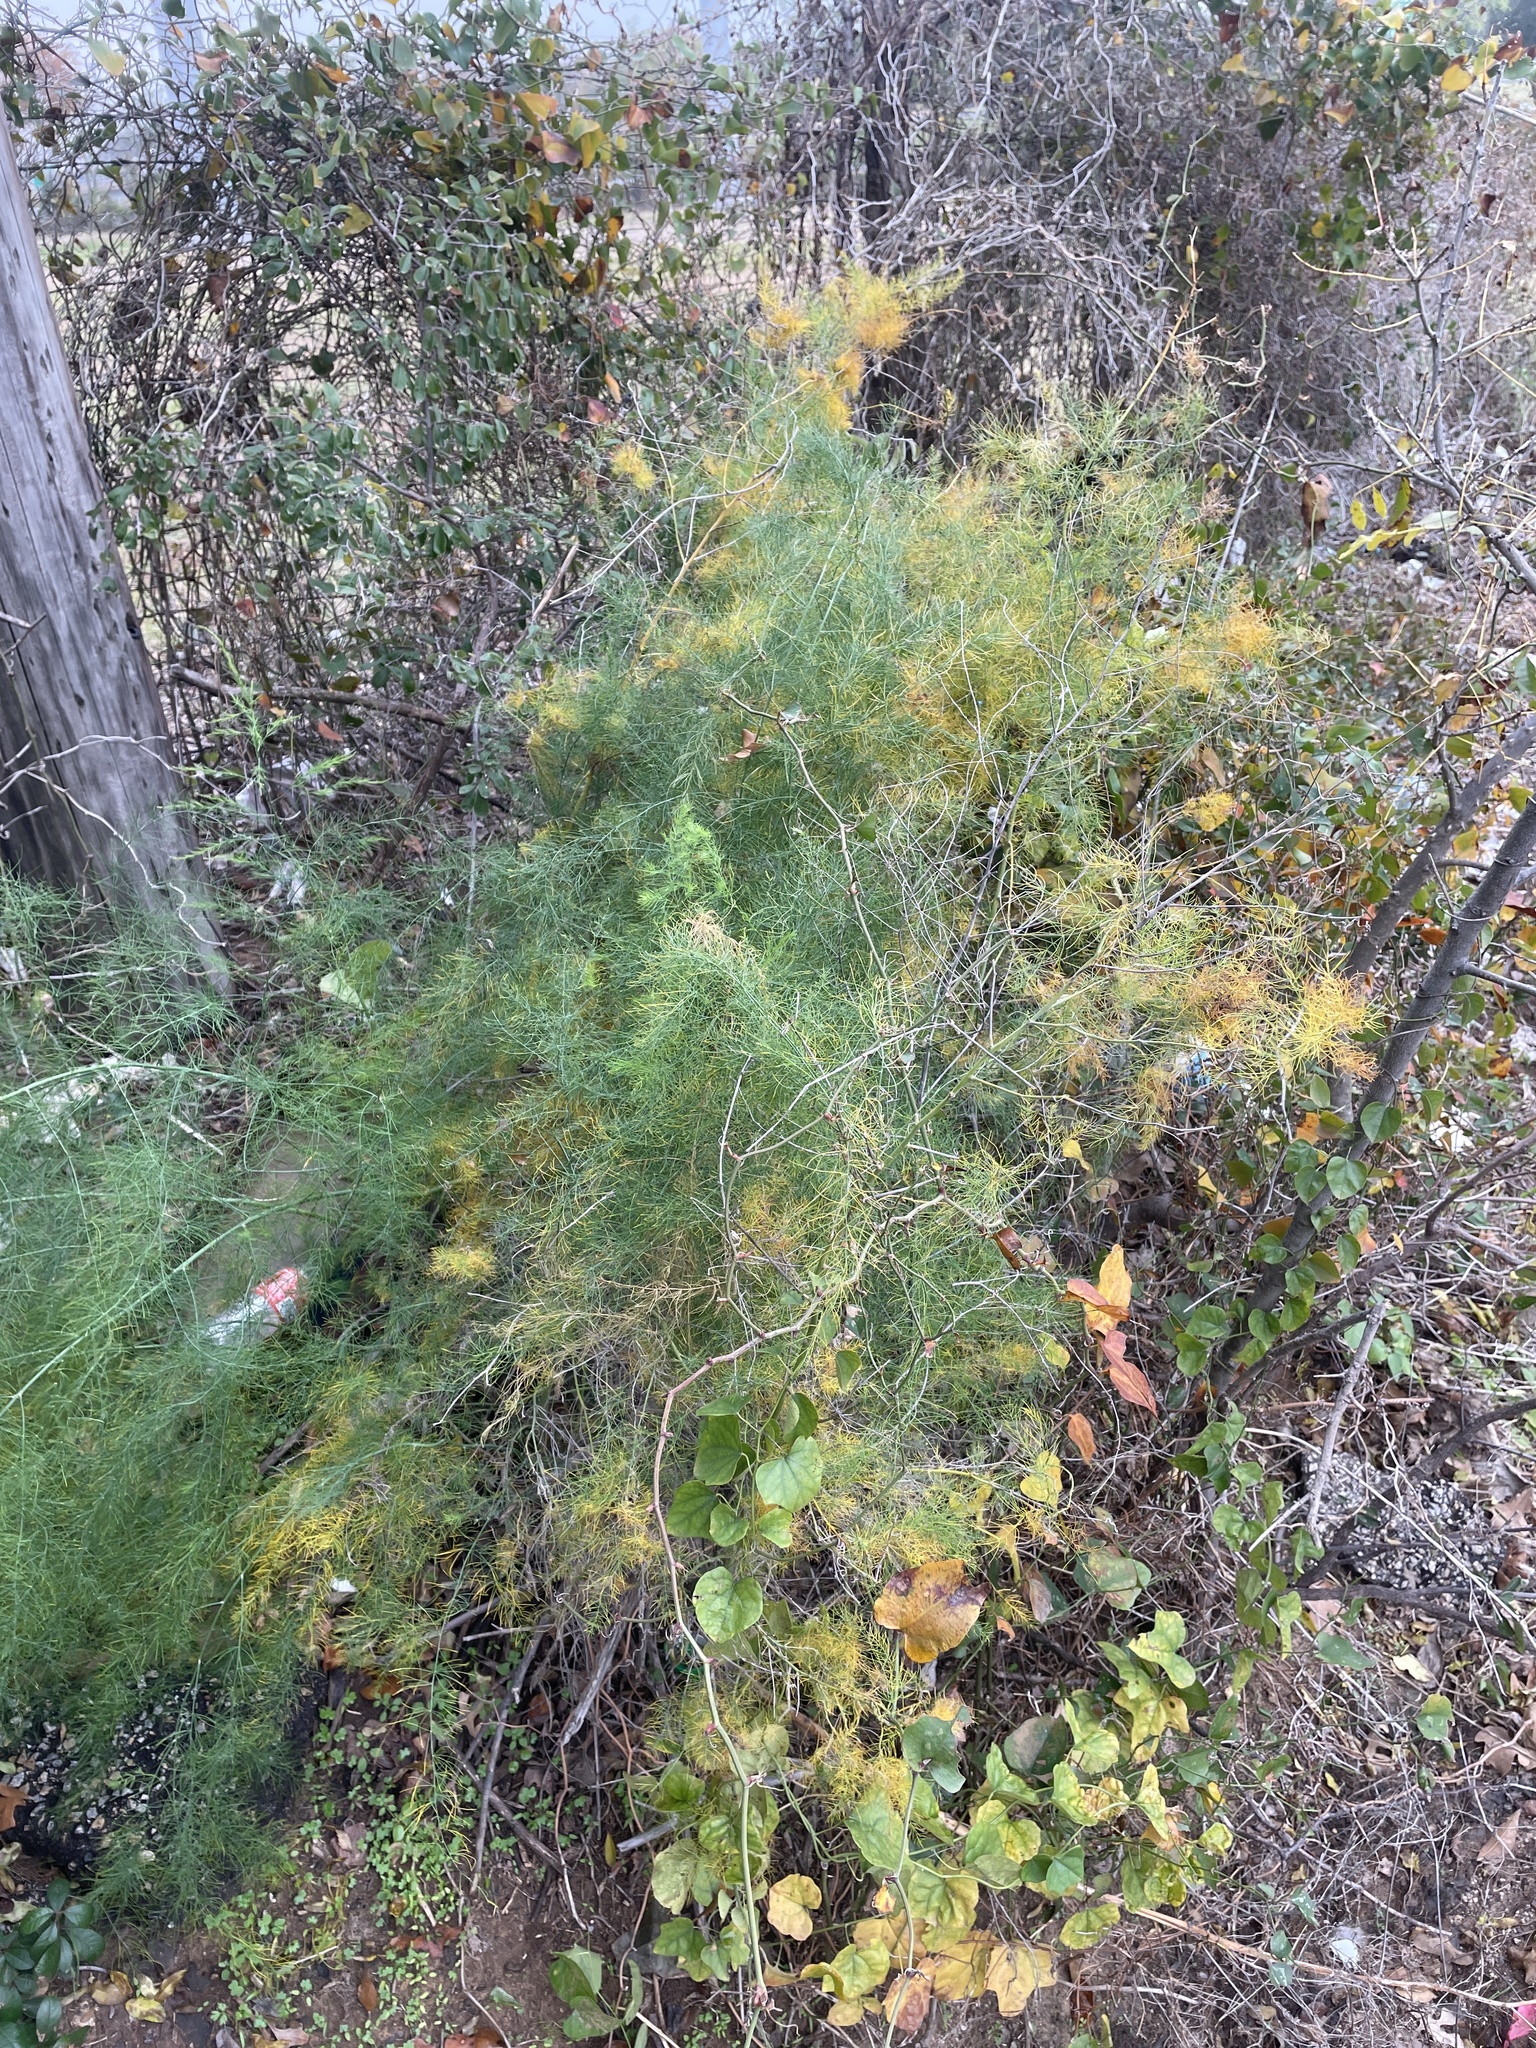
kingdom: Plantae
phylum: Tracheophyta
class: Liliopsida
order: Asparagales
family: Asparagaceae
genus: Asparagus
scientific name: Asparagus officinalis
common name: Garden asparagus
